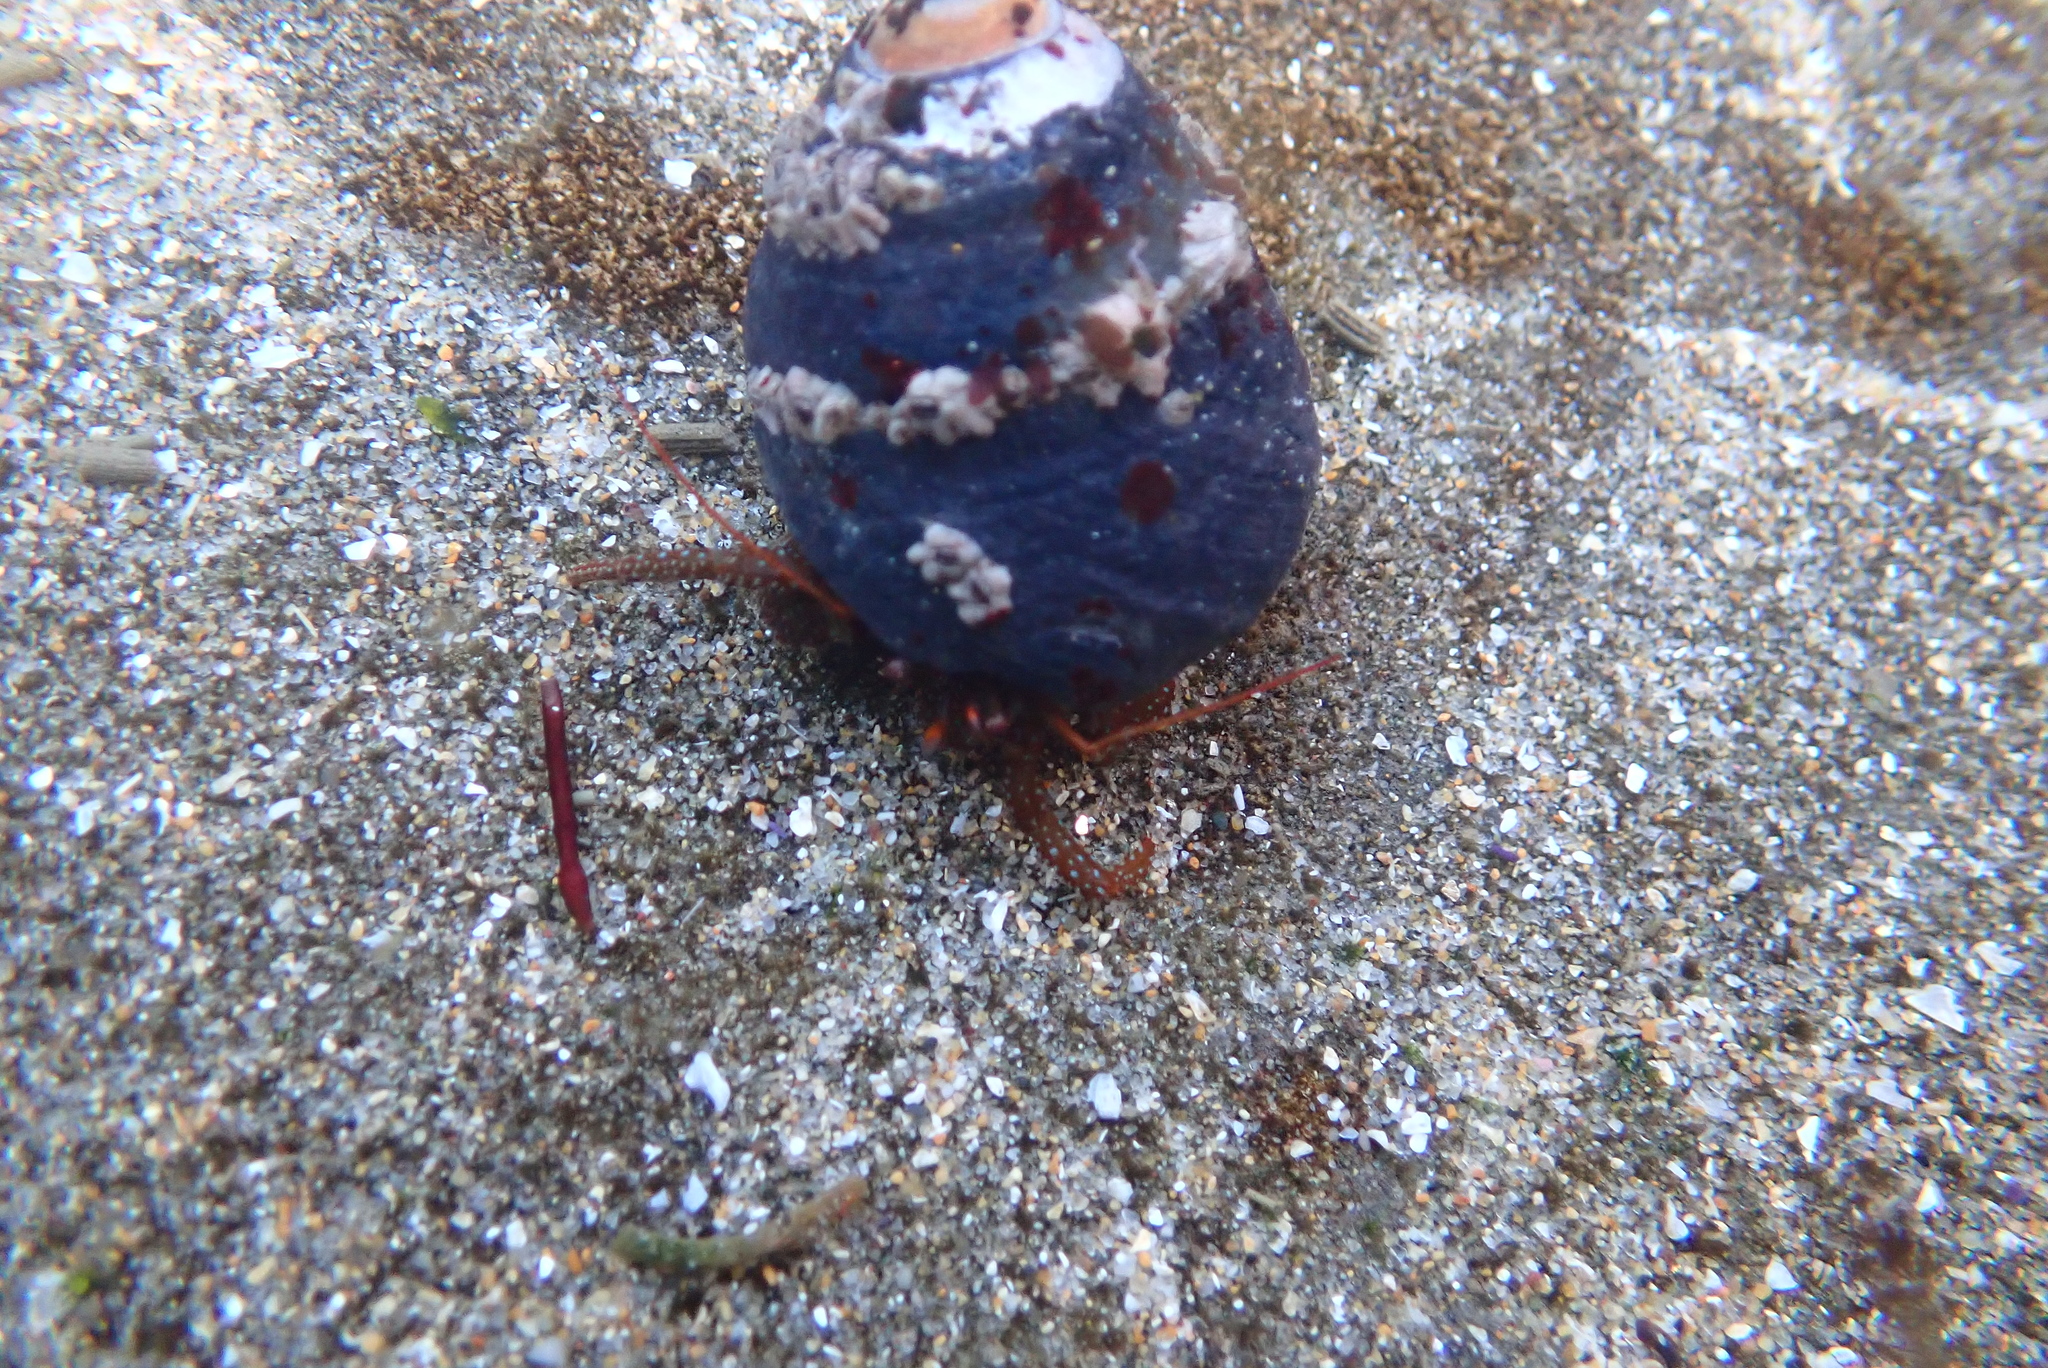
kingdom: Animalia
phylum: Arthropoda
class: Malacostraca
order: Decapoda
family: Paguridae
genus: Pagurus
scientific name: Pagurus granosimanus
